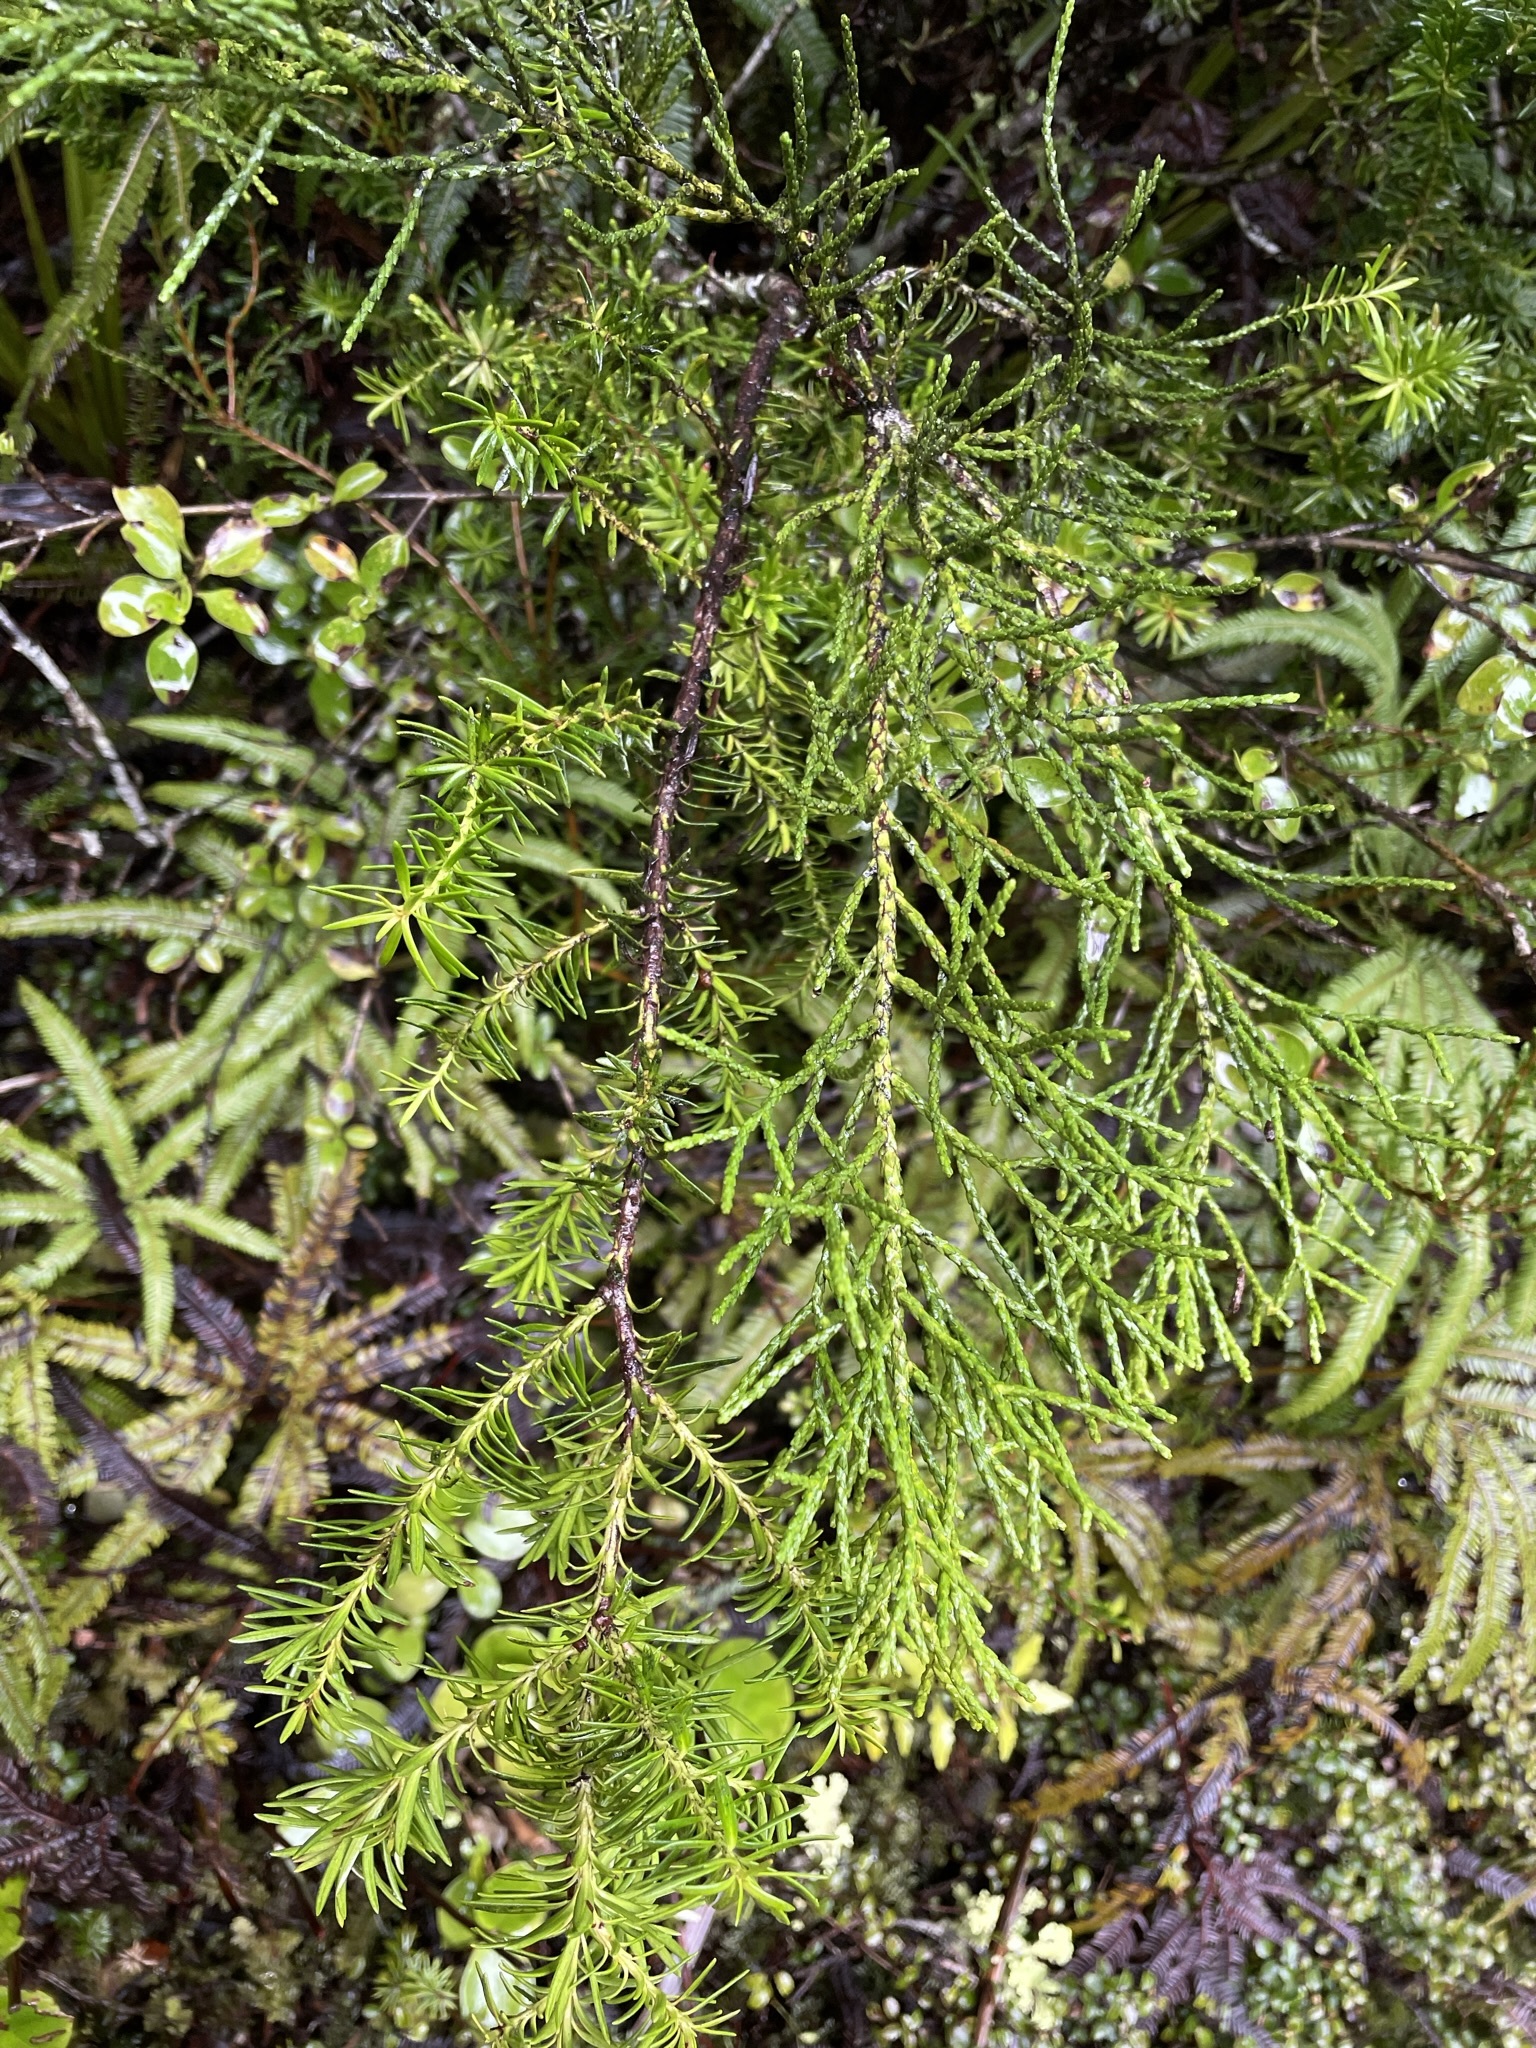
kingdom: Plantae
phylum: Tracheophyta
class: Pinopsida
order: Pinales
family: Podocarpaceae
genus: Halocarpus
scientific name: Halocarpus biformis
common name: Alpine tarwood
